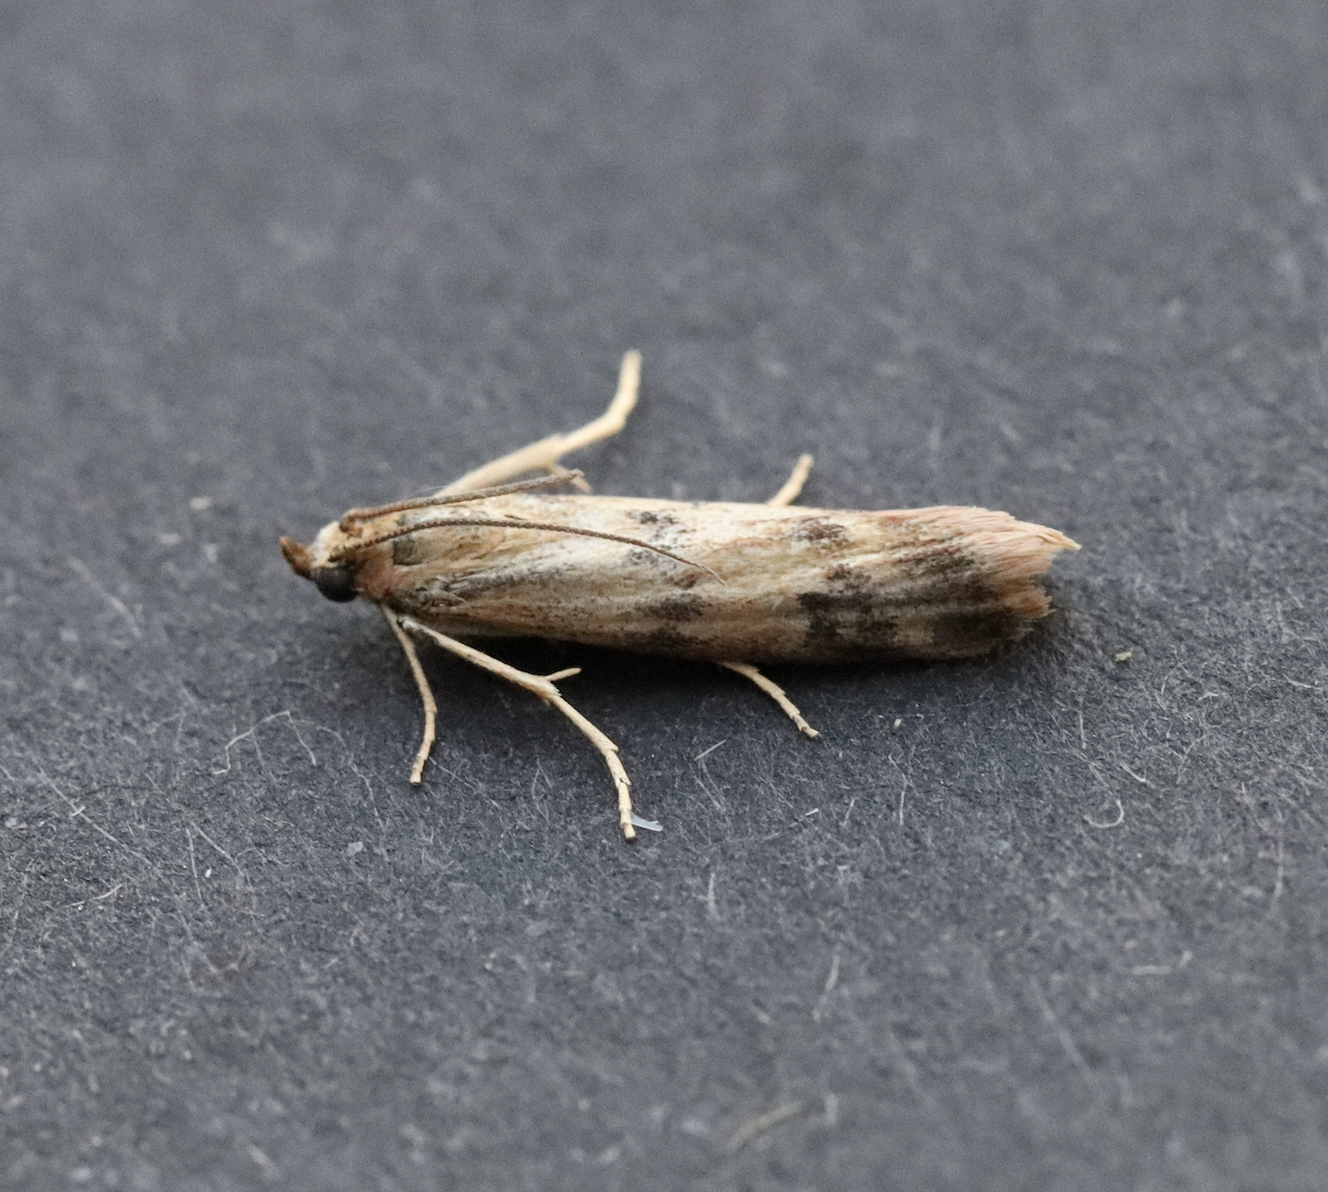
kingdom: Animalia
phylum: Arthropoda
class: Insecta
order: Lepidoptera
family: Pyralidae
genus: Homoeosoma
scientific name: Homoeosoma sinuella
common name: Twin-barred knot-horn
